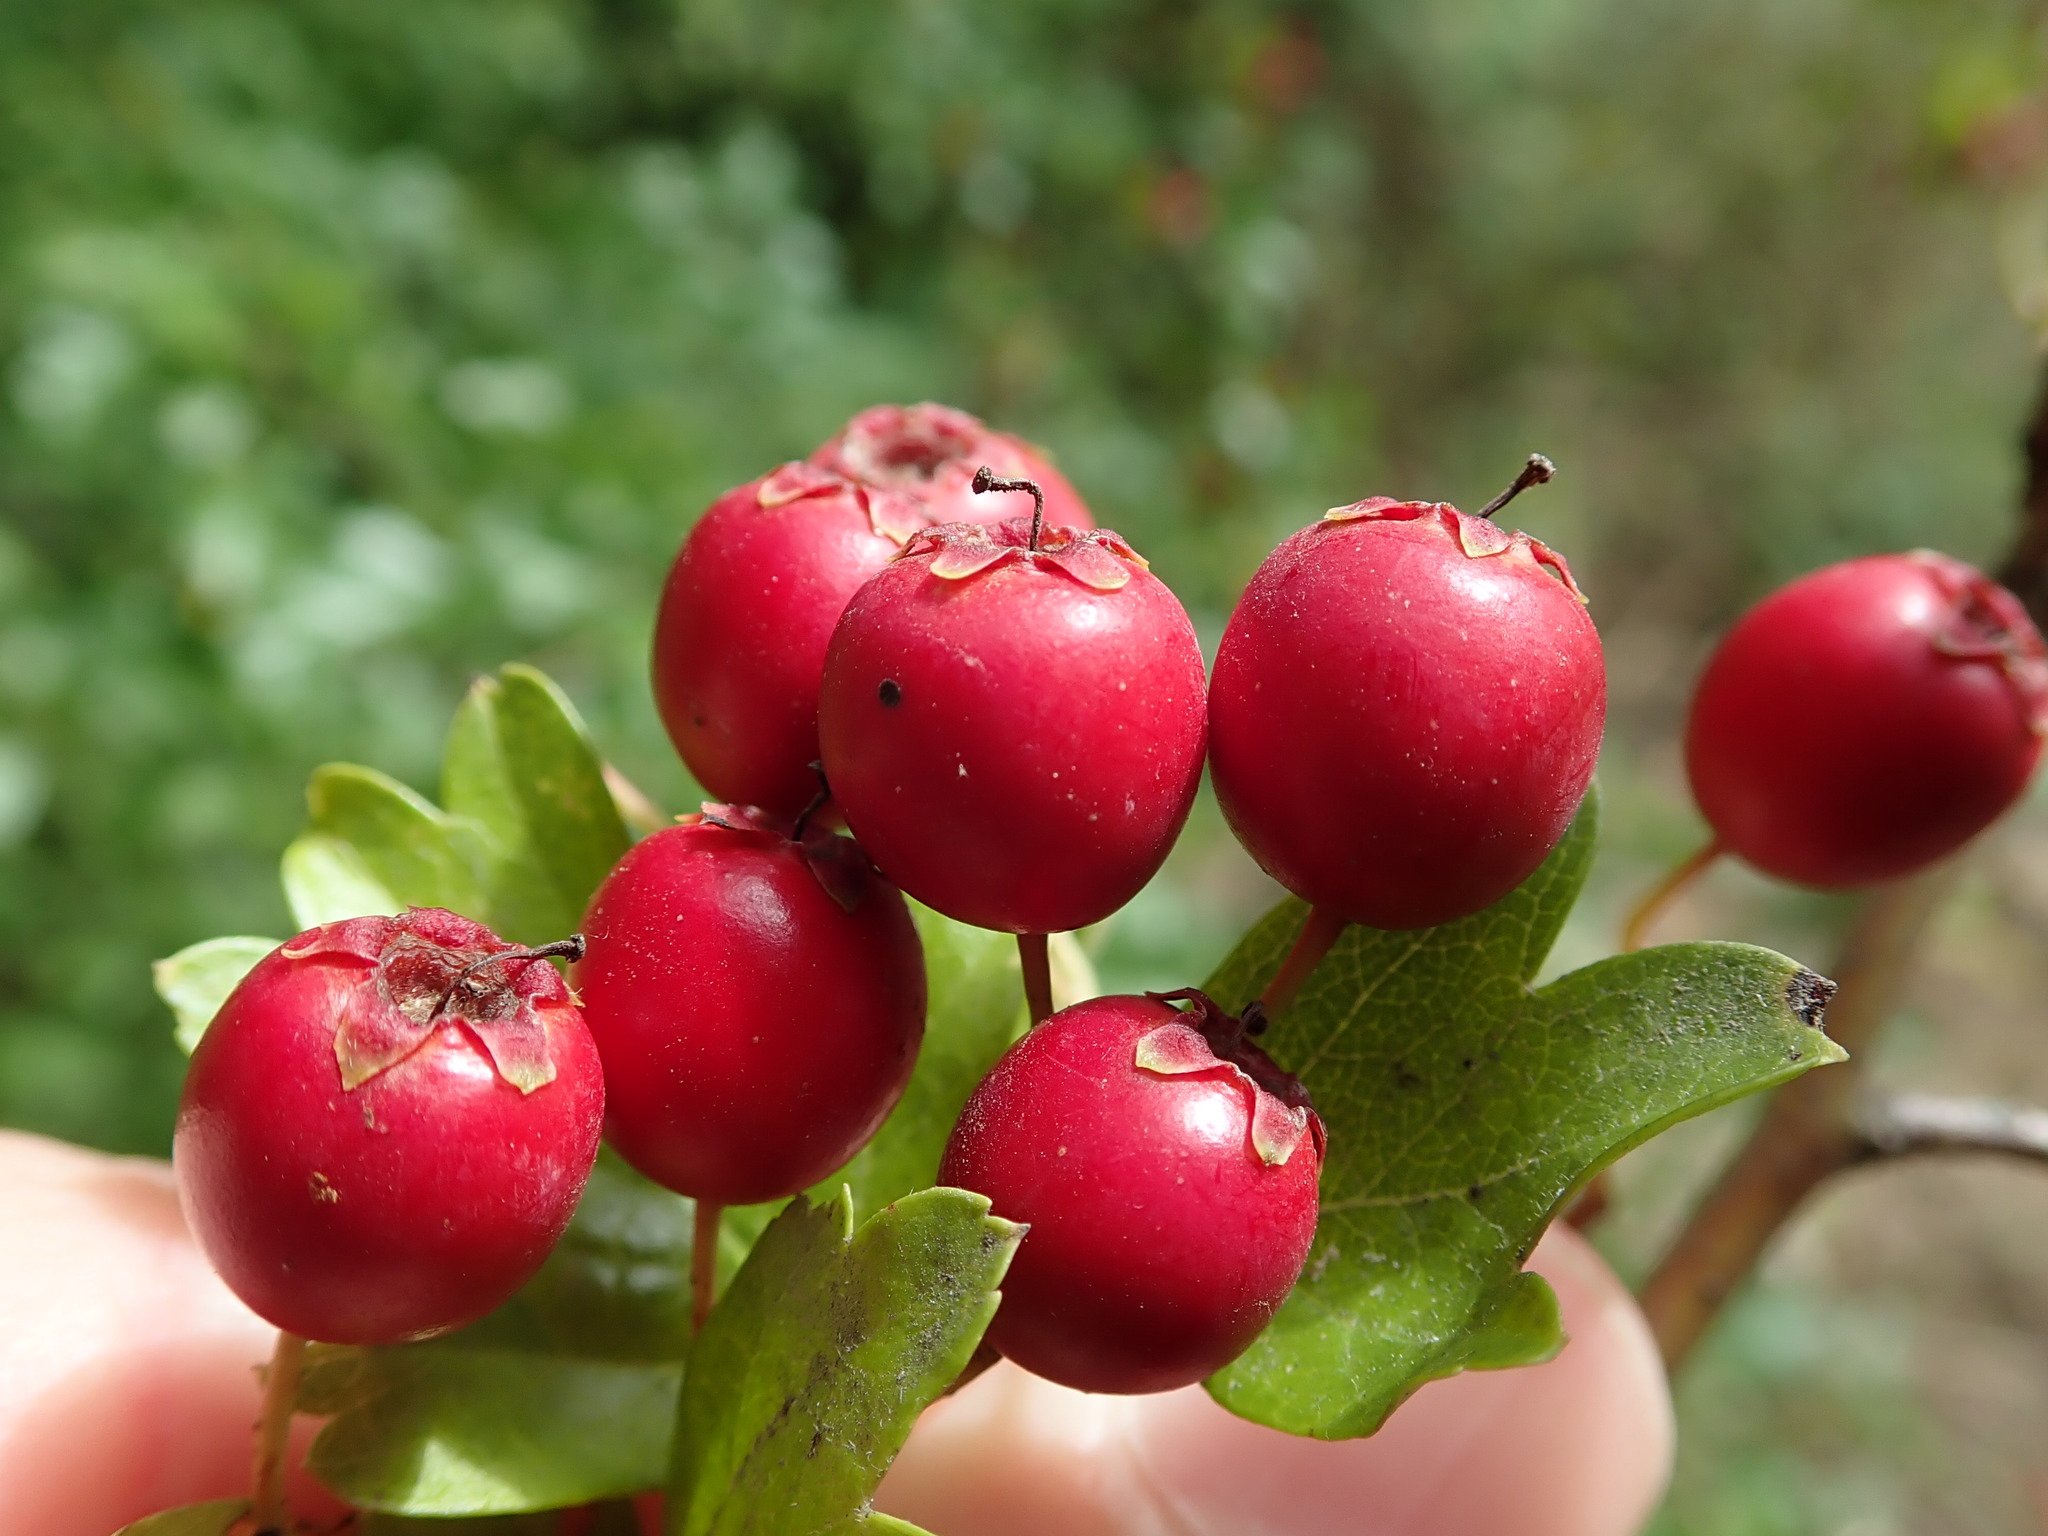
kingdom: Plantae
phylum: Tracheophyta
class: Magnoliopsida
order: Rosales
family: Rosaceae
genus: Crataegus
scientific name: Crataegus monogyna
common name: Hawthorn
